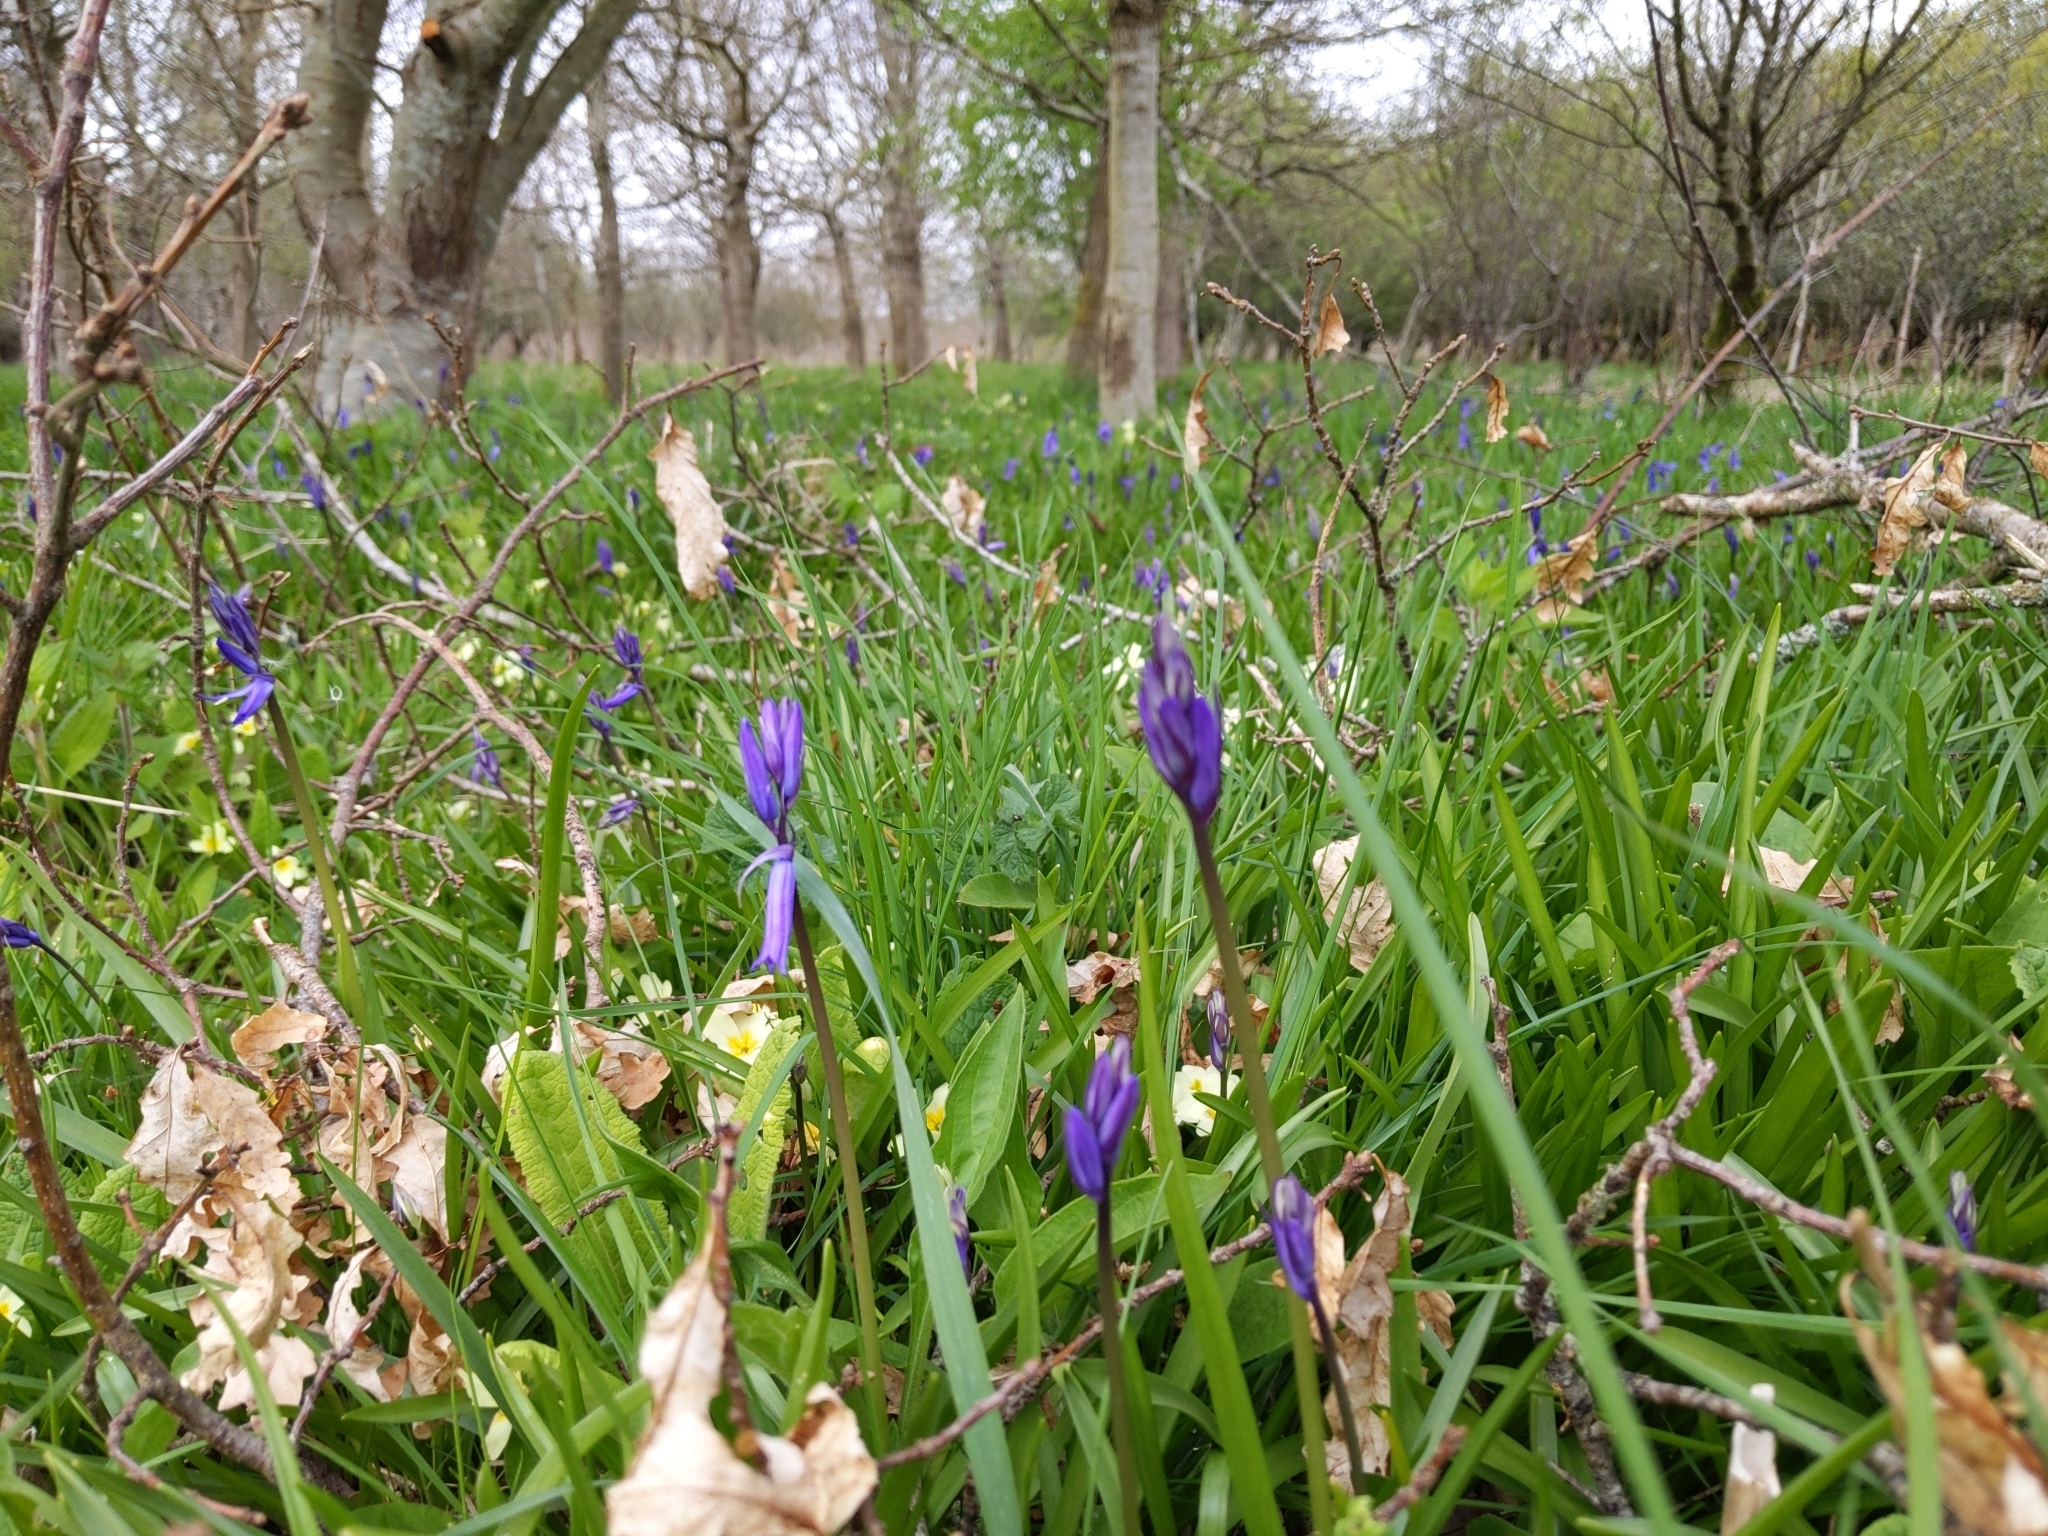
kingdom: Plantae
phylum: Tracheophyta
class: Liliopsida
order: Asparagales
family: Asparagaceae
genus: Hyacinthoides
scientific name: Hyacinthoides non-scripta
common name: Bluebell
